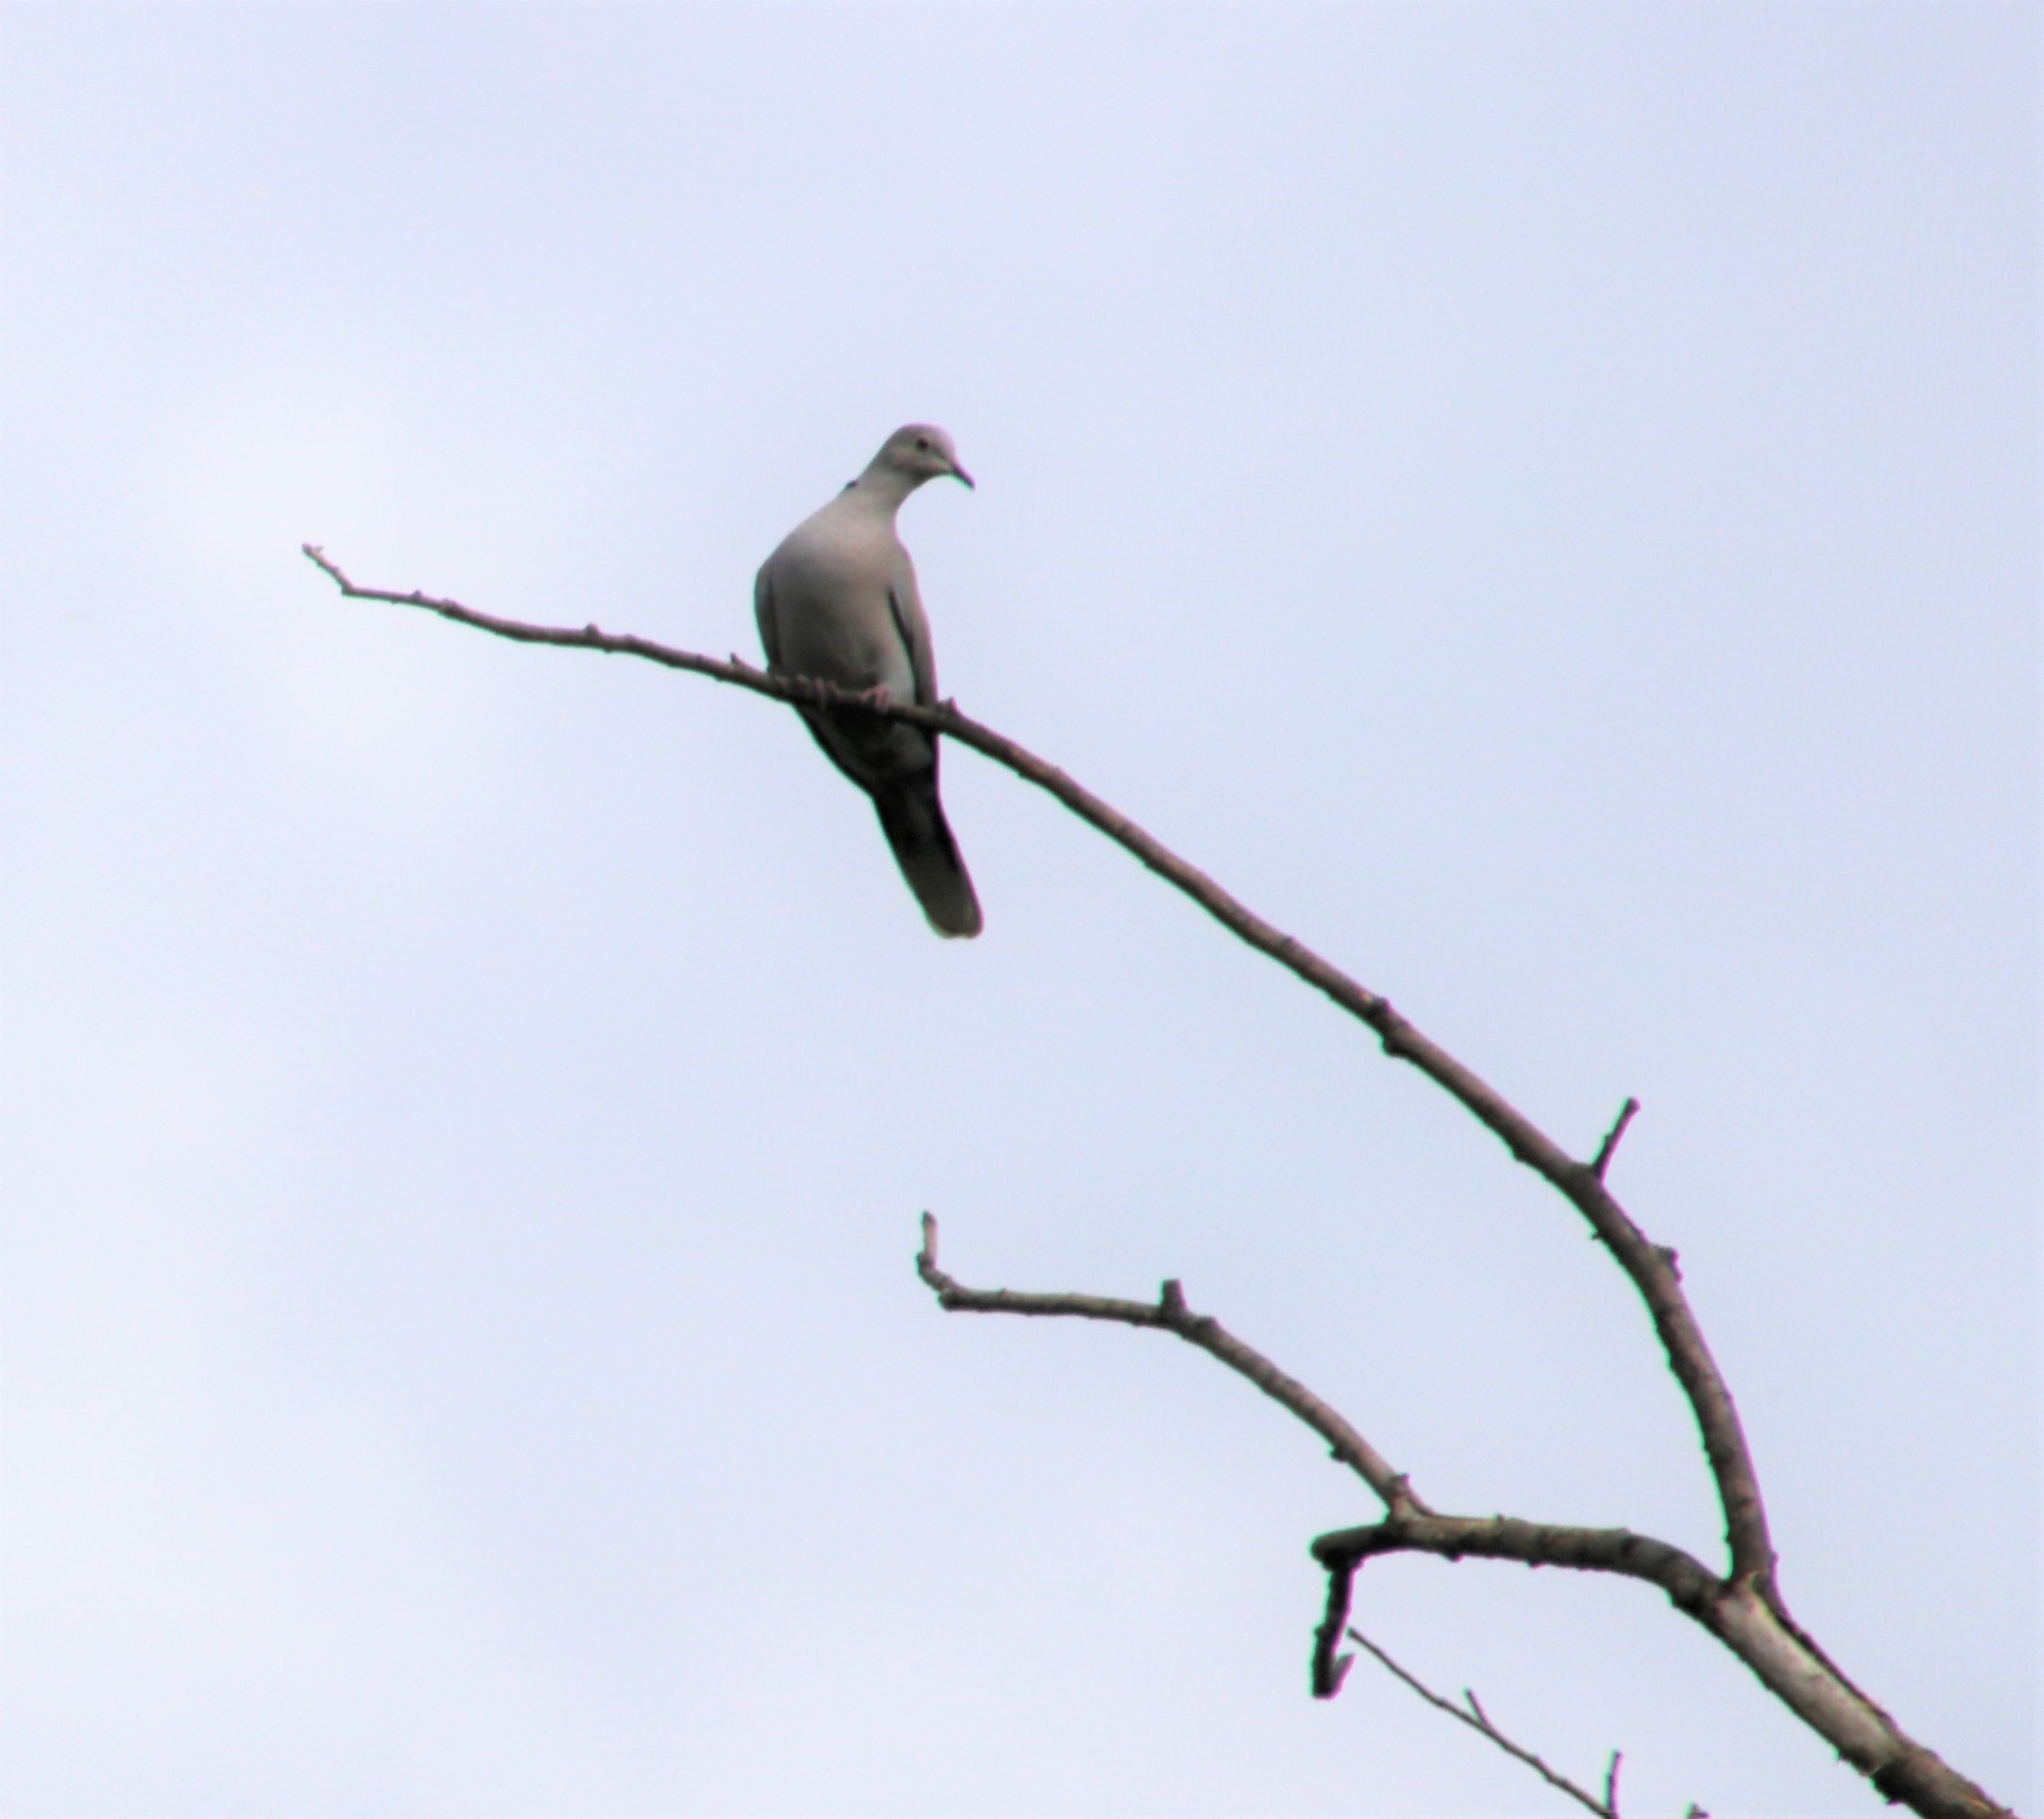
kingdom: Animalia
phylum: Chordata
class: Aves
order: Columbiformes
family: Columbidae
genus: Streptopelia
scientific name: Streptopelia decaocto
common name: Eurasian collared dove
